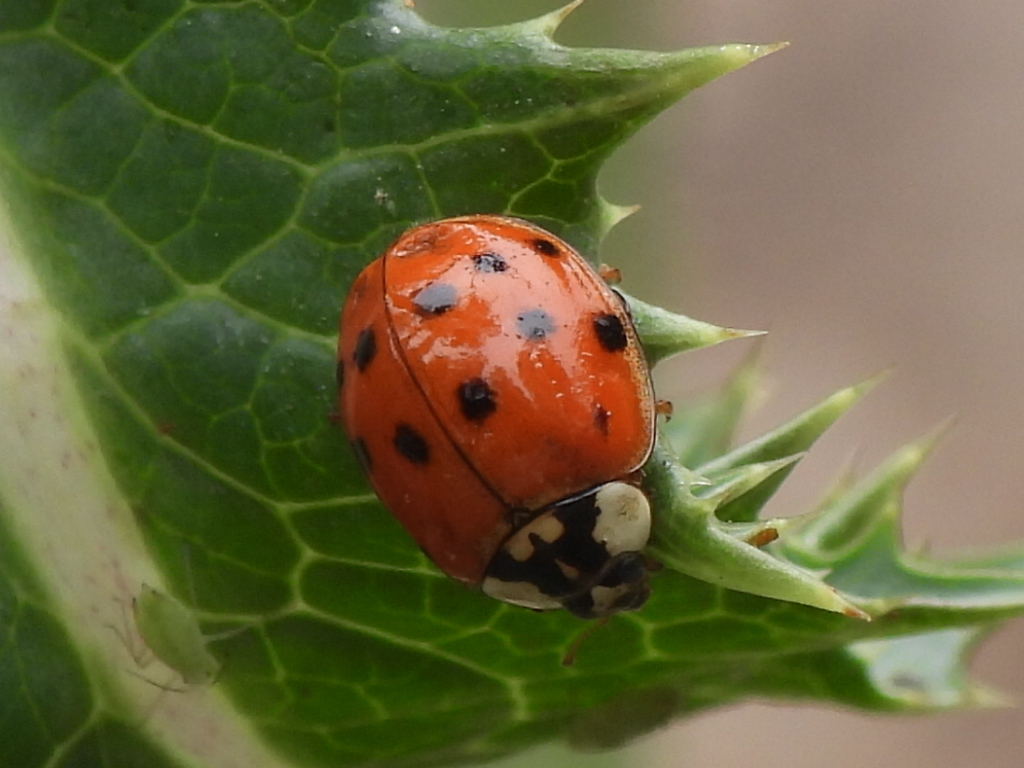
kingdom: Animalia
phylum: Arthropoda
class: Insecta
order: Coleoptera
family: Coccinellidae
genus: Harmonia
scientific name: Harmonia axyridis
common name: Harlequin ladybird
